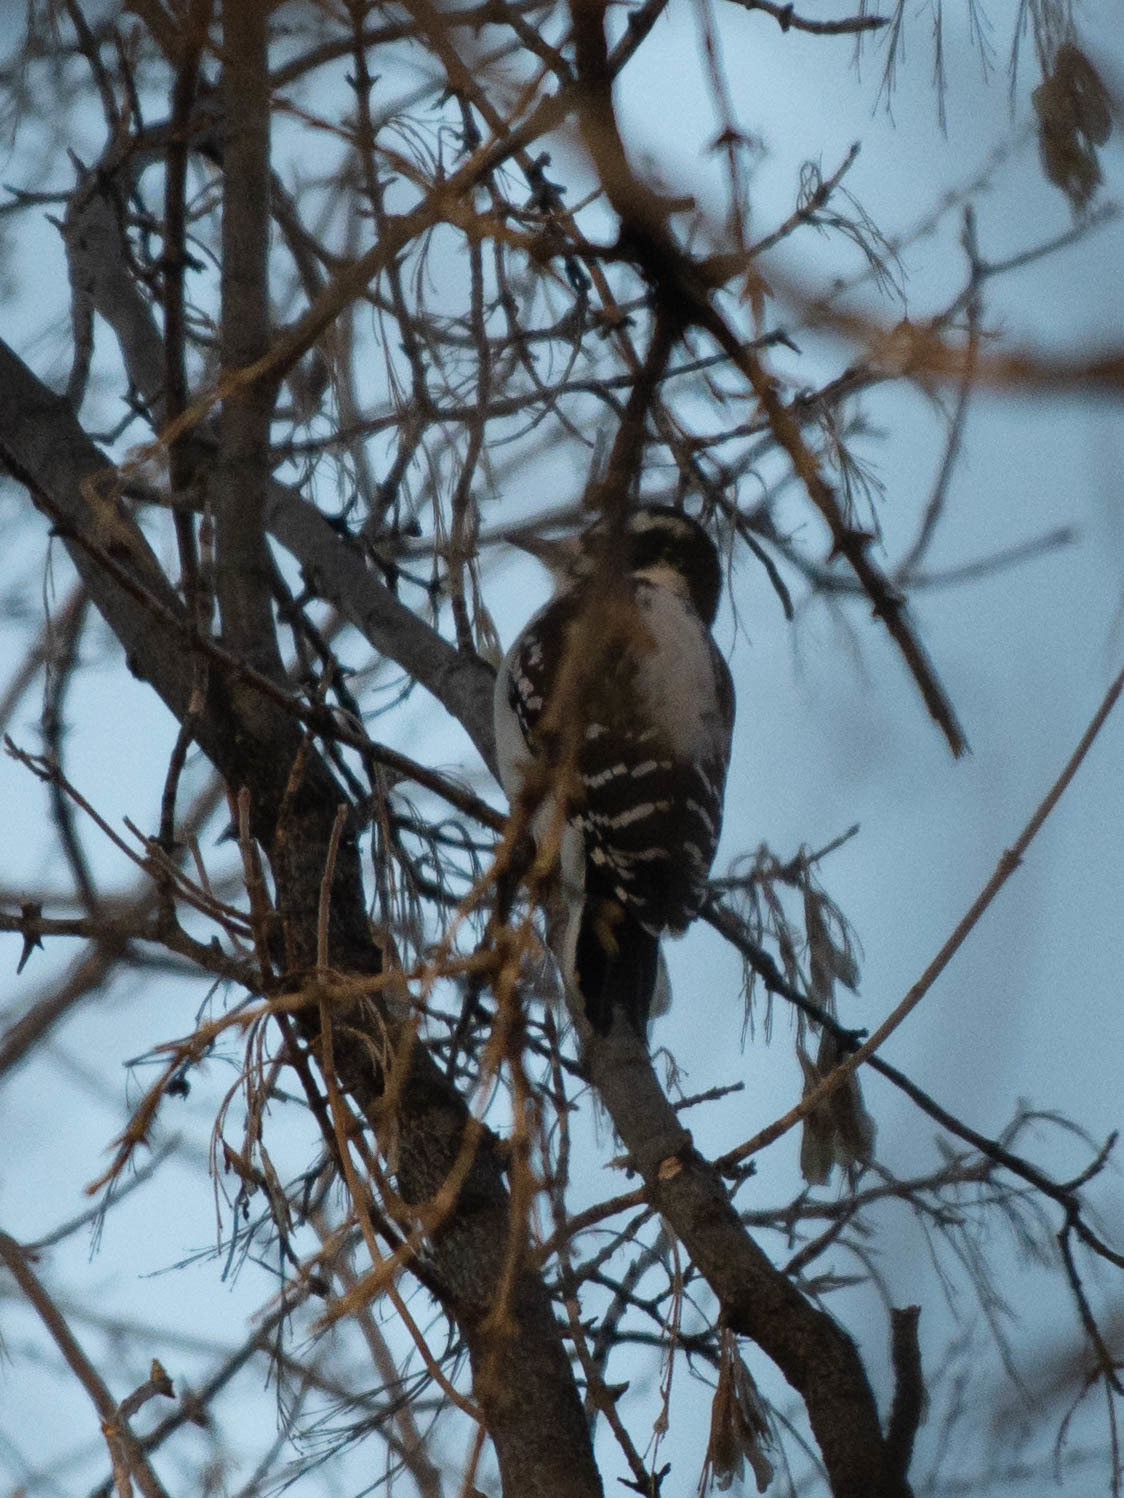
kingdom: Animalia
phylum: Chordata
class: Aves
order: Piciformes
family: Picidae
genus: Leuconotopicus
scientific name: Leuconotopicus villosus
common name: Hairy woodpecker
